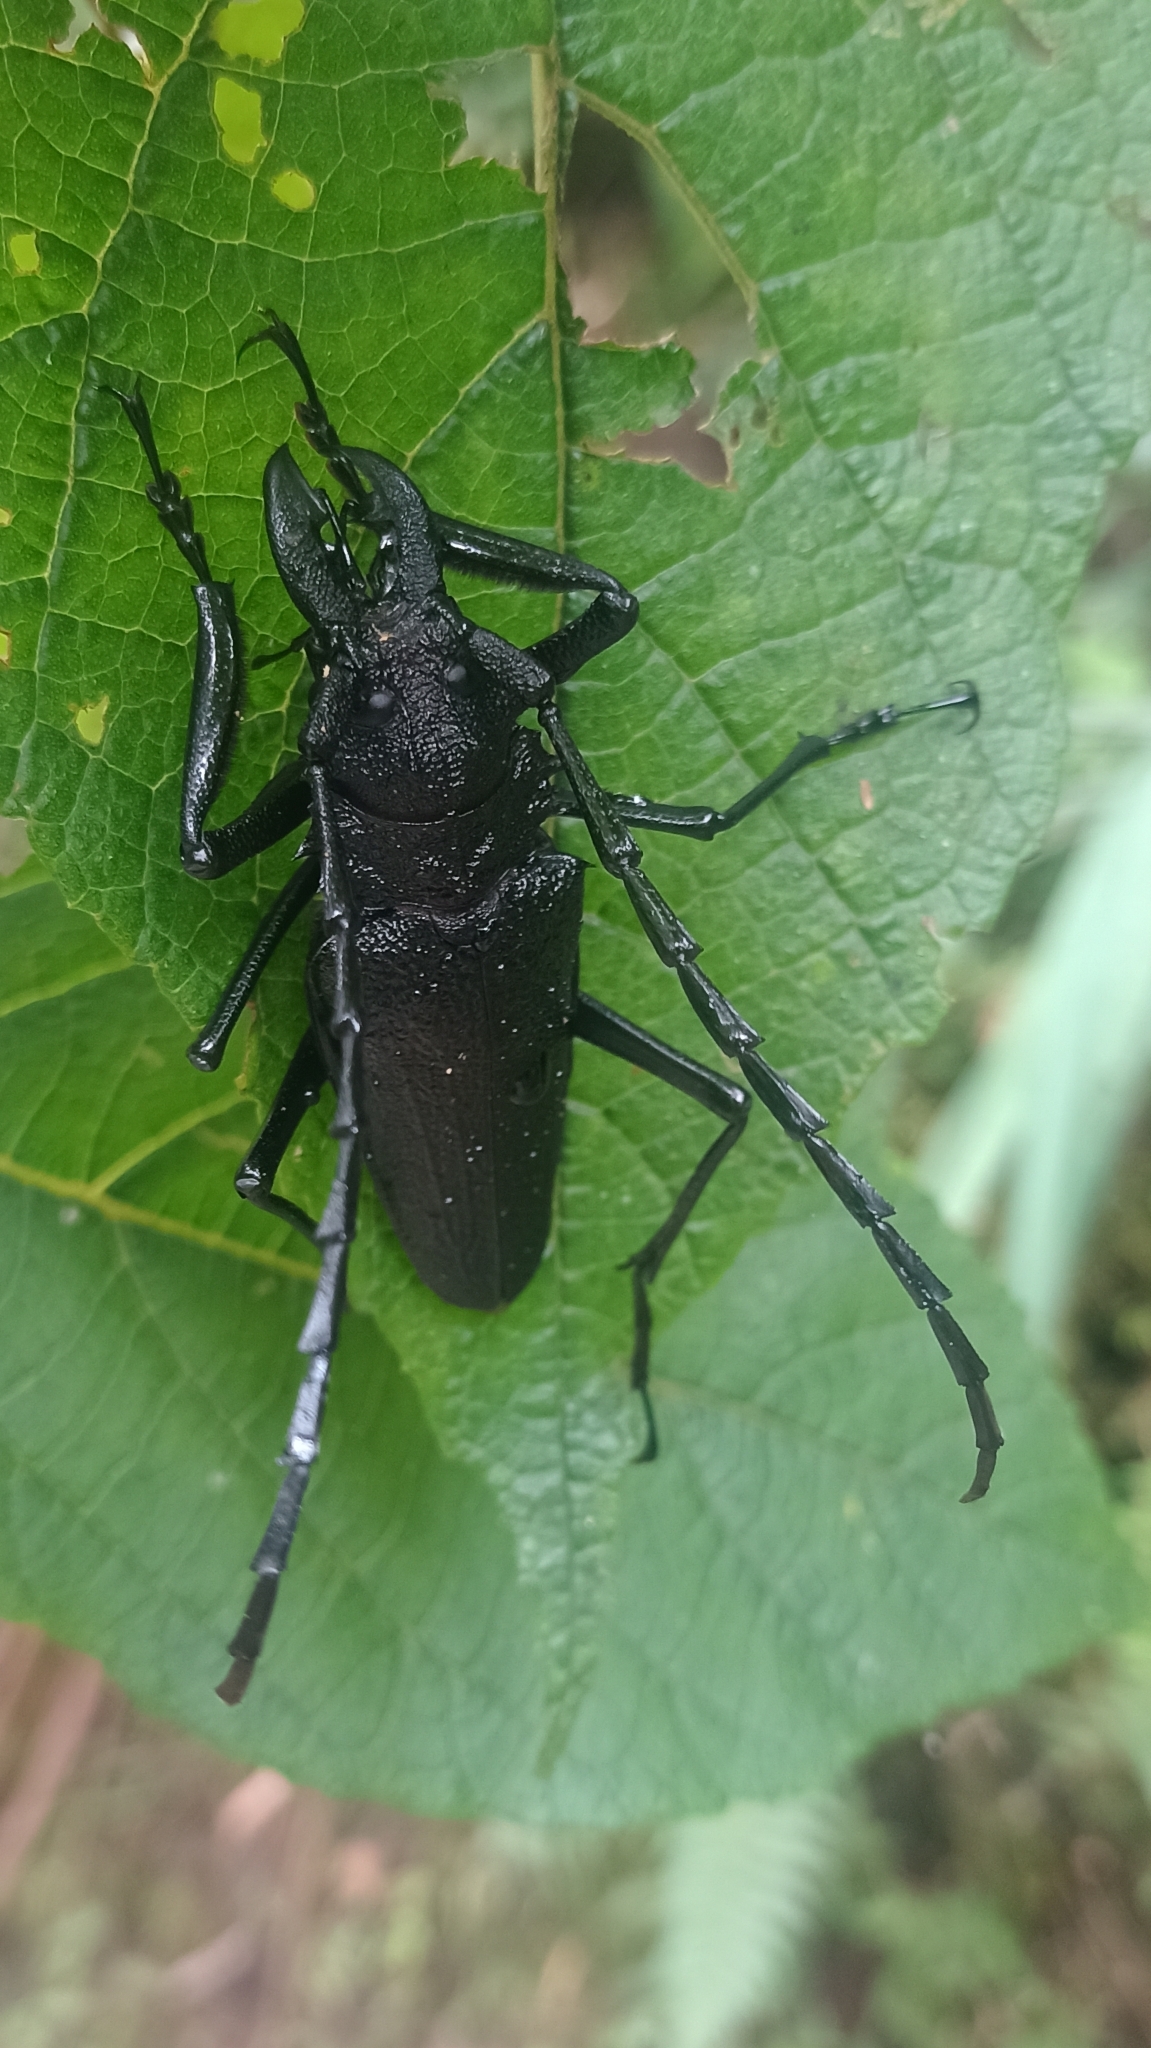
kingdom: Animalia
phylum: Arthropoda
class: Insecta
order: Coleoptera
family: Cerambycidae
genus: Psalidognathus
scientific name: Psalidognathus modestus
